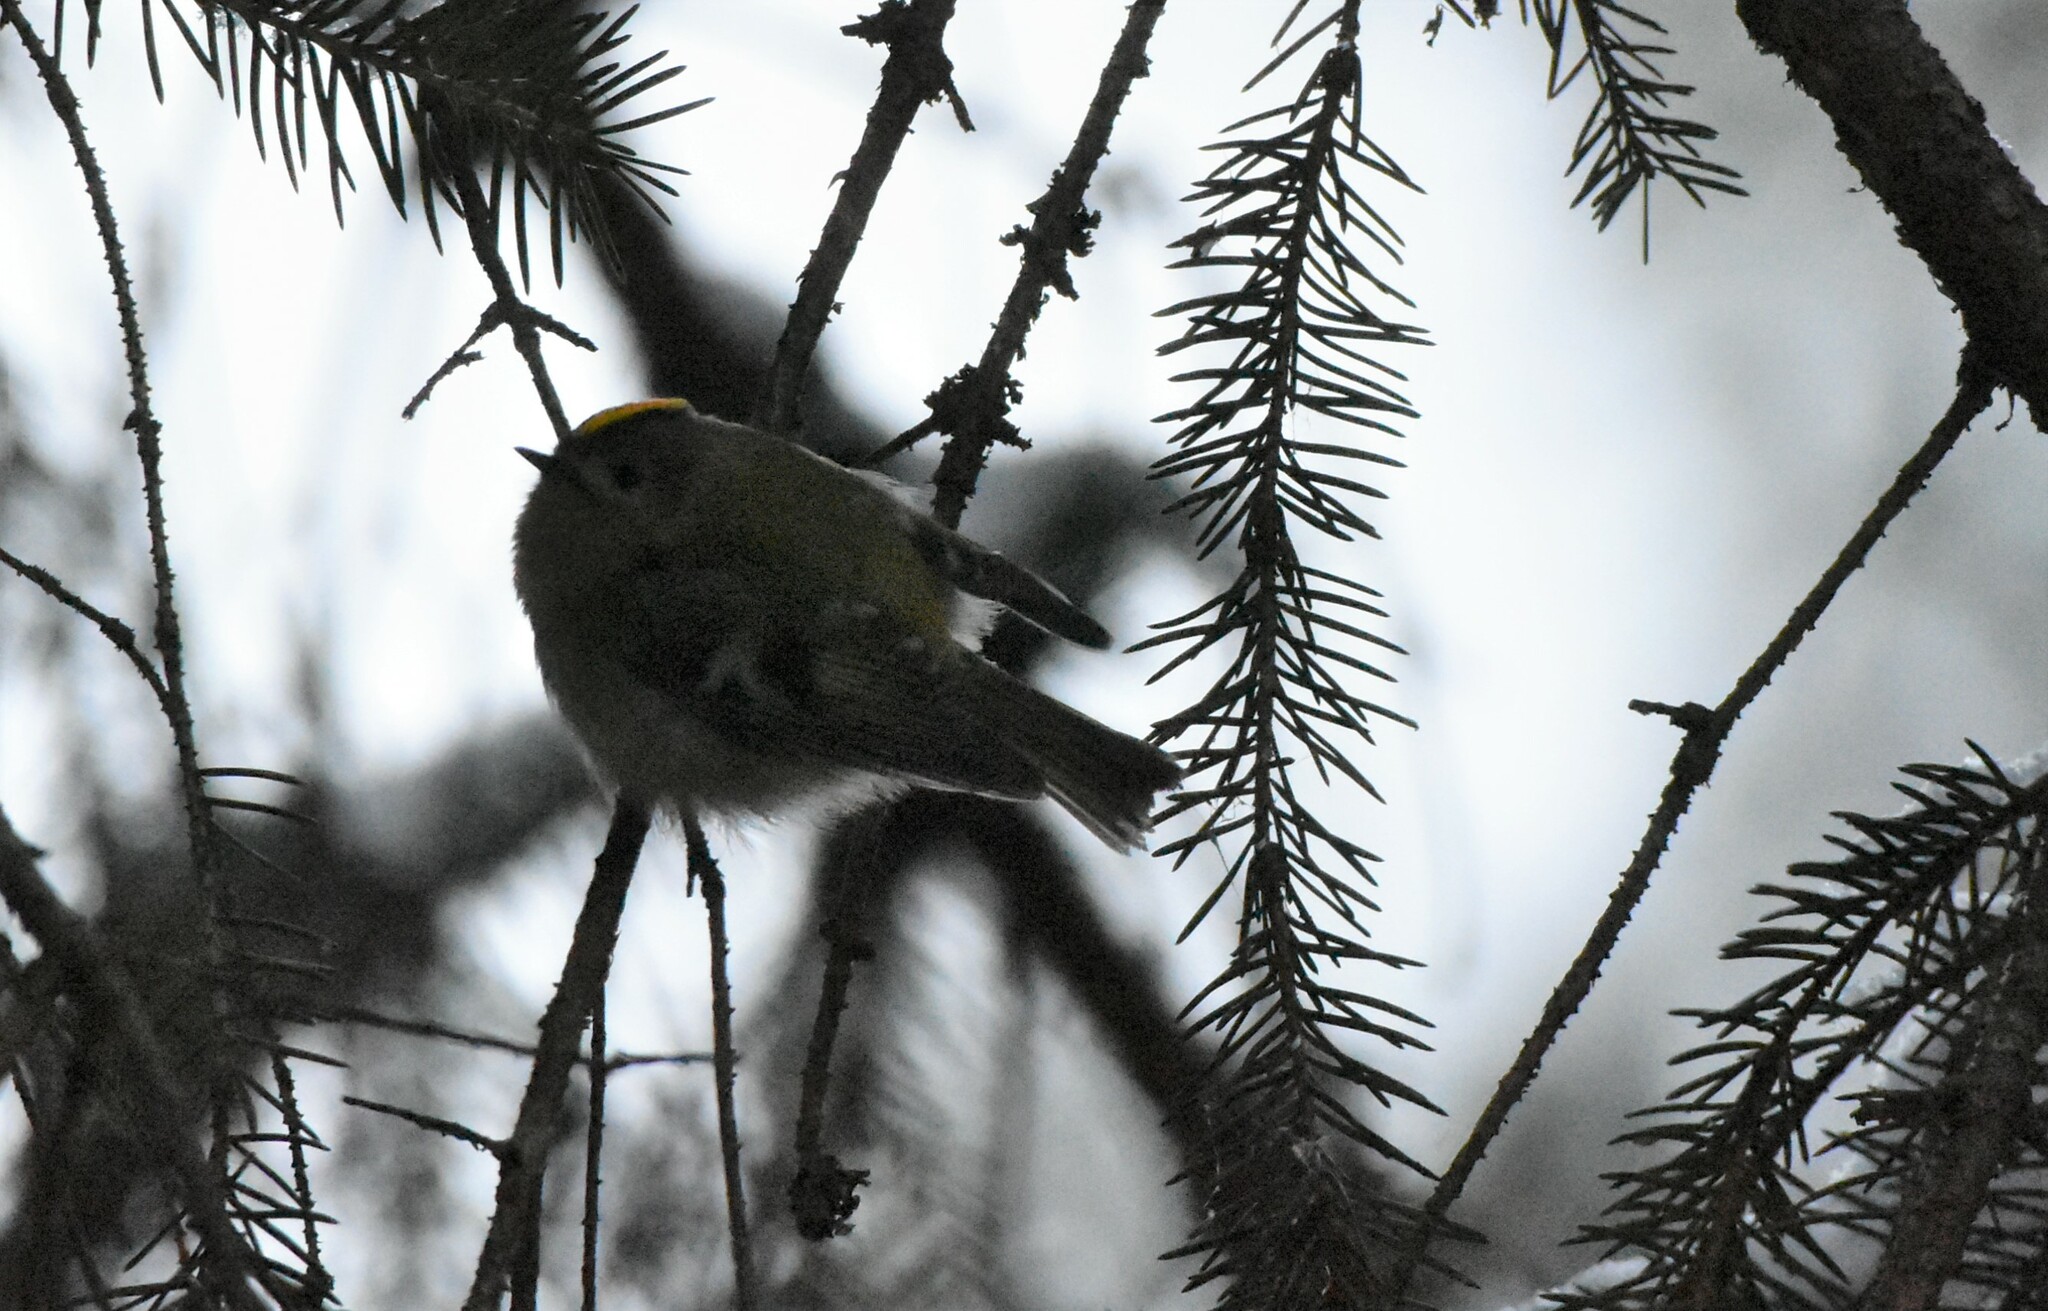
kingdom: Animalia
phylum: Chordata
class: Aves
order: Passeriformes
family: Regulidae
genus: Regulus
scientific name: Regulus regulus
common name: Goldcrest
